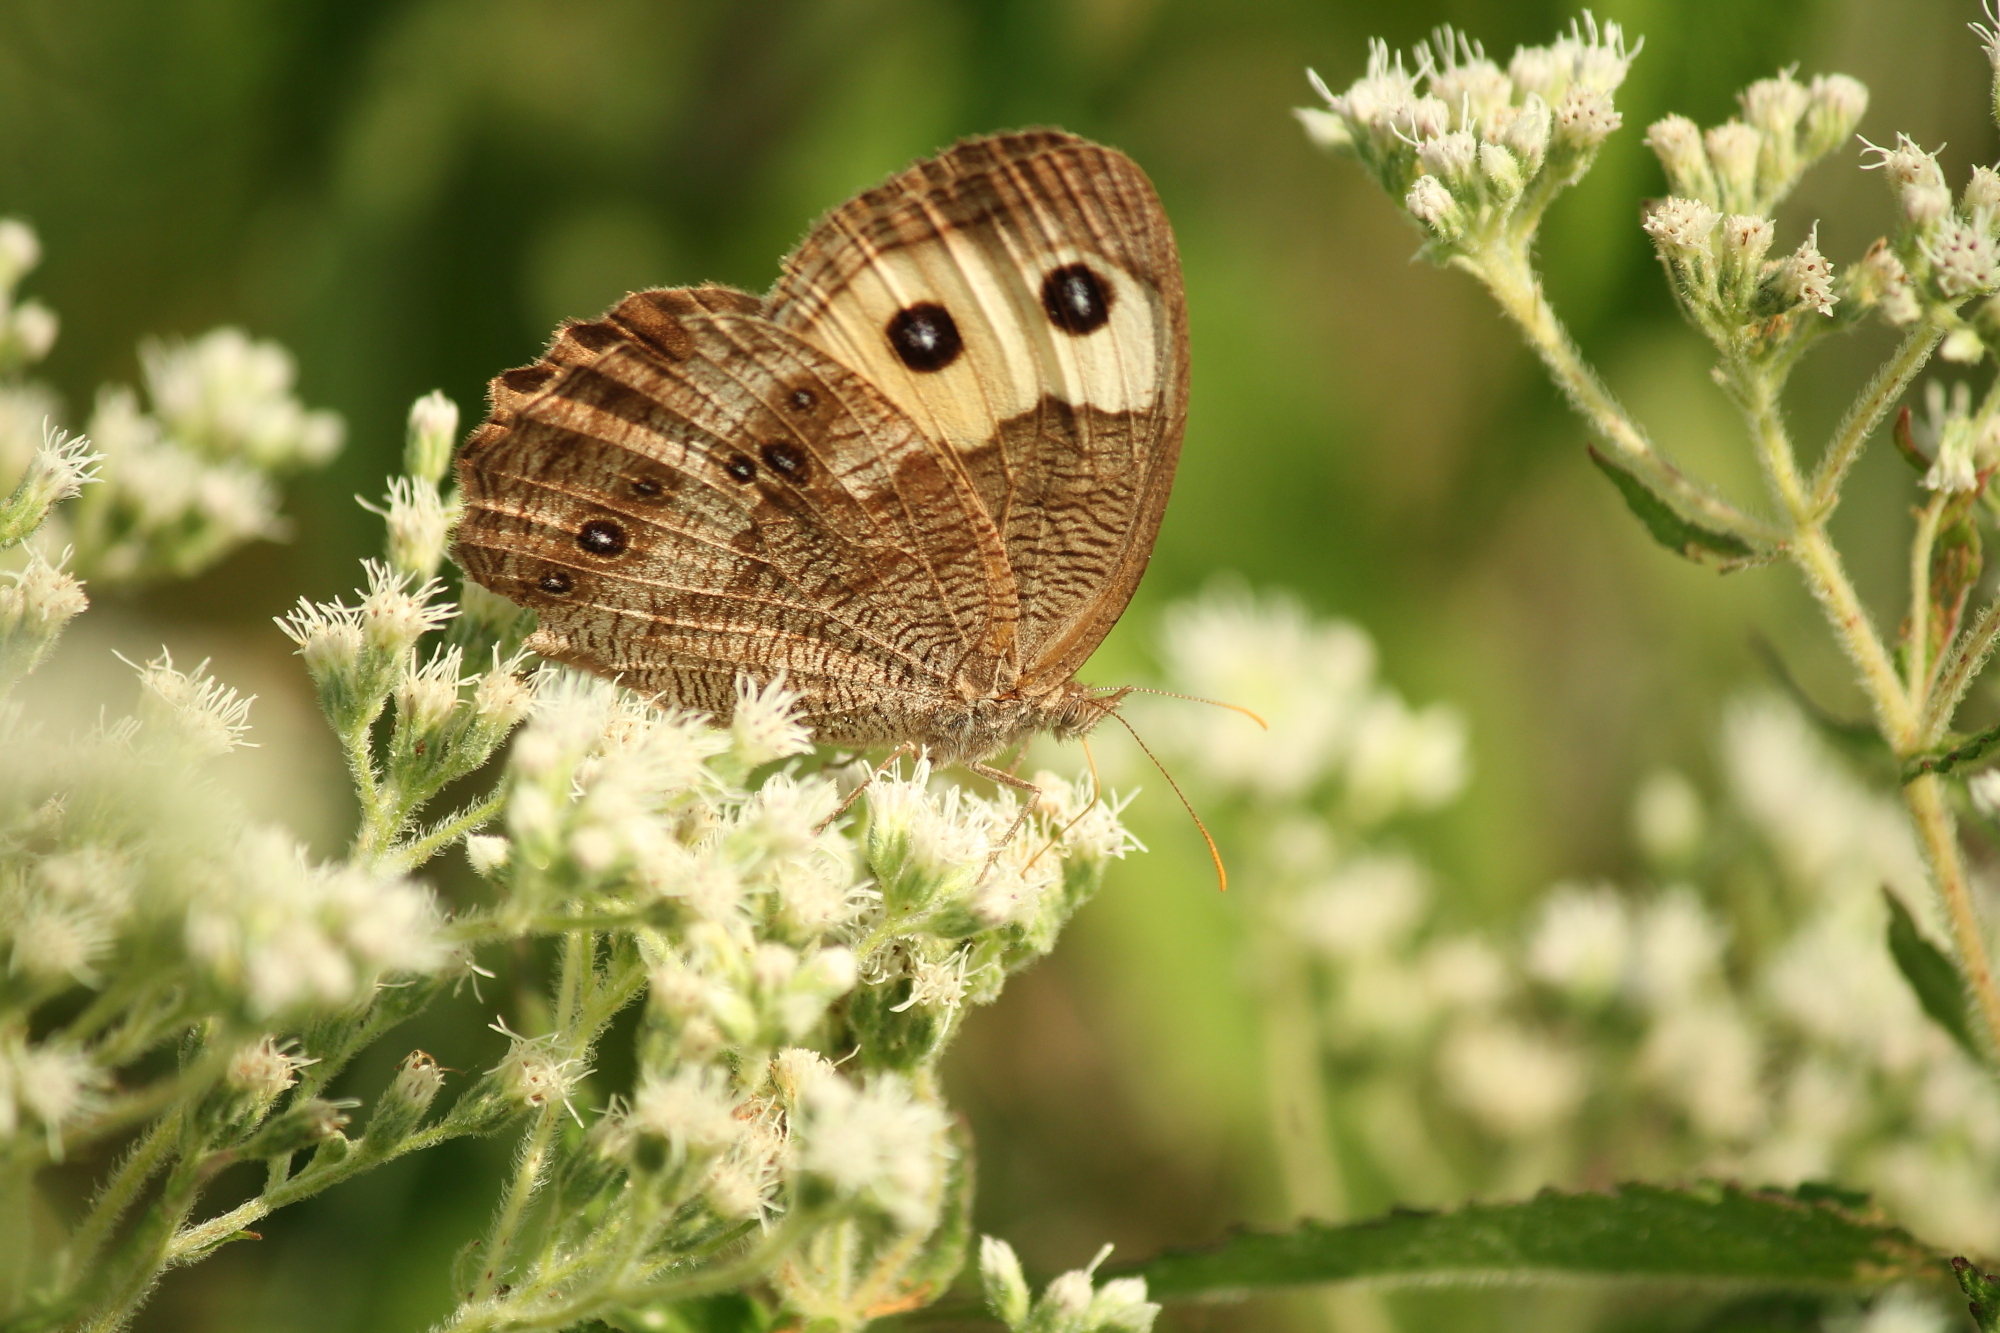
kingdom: Animalia
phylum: Arthropoda
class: Insecta
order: Lepidoptera
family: Nymphalidae
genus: Cercyonis
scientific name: Cercyonis pegala
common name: Common wood-nymph
